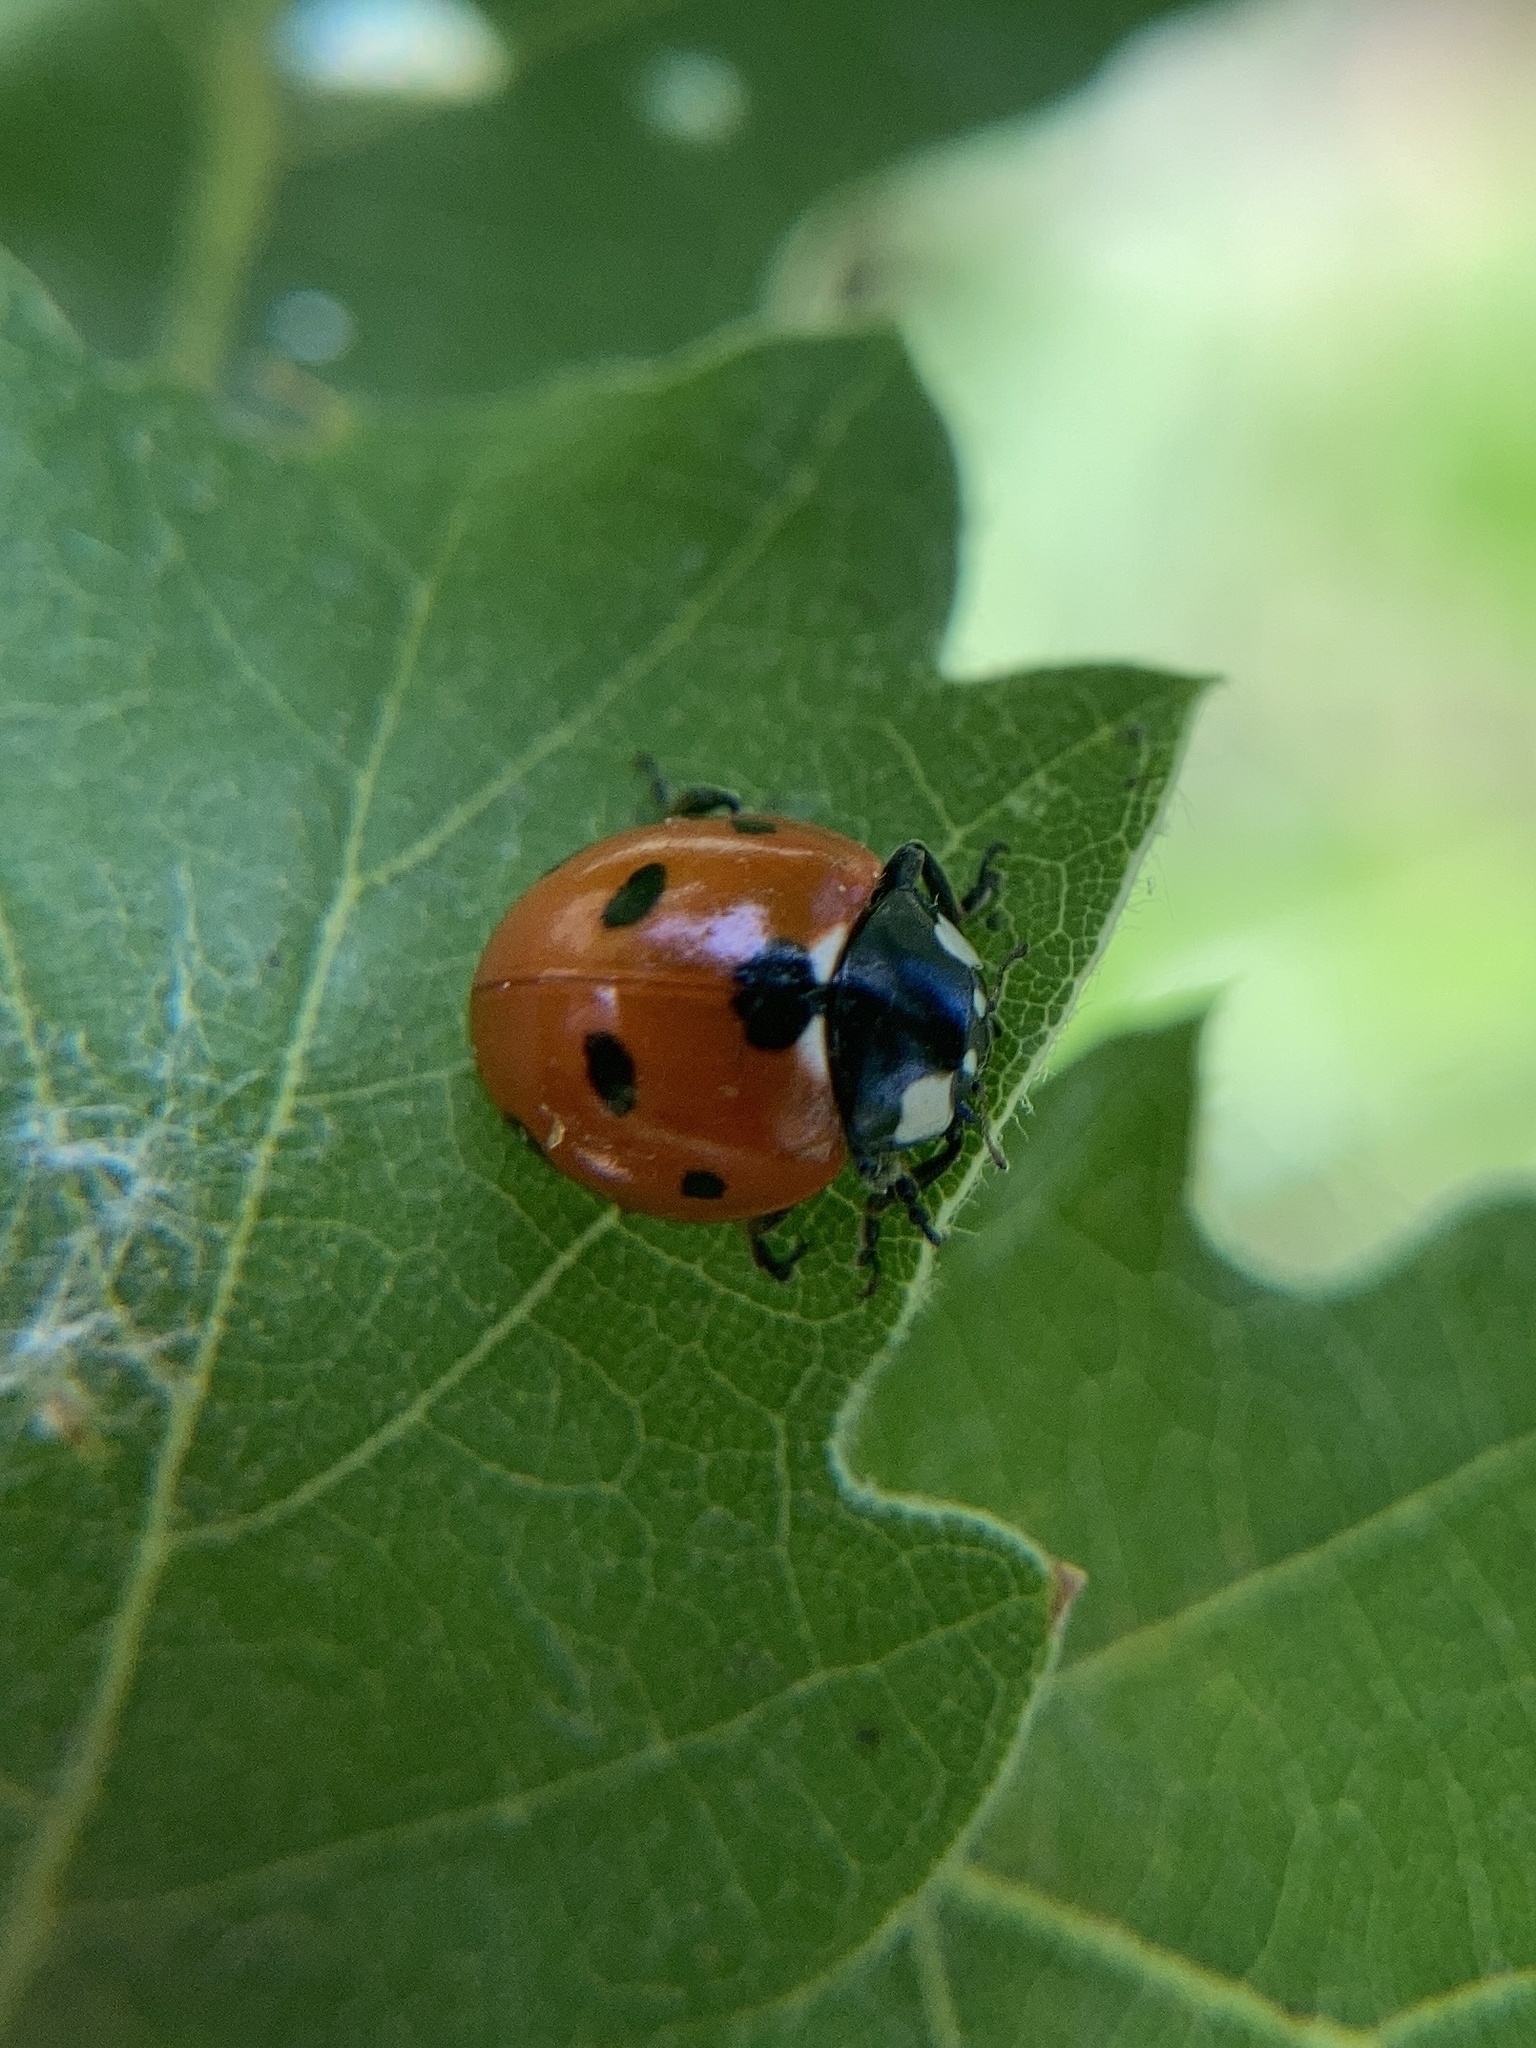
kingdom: Animalia
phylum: Arthropoda
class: Insecta
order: Coleoptera
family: Coccinellidae
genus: Coccinella
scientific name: Coccinella septempunctata
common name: Sevenspotted lady beetle
